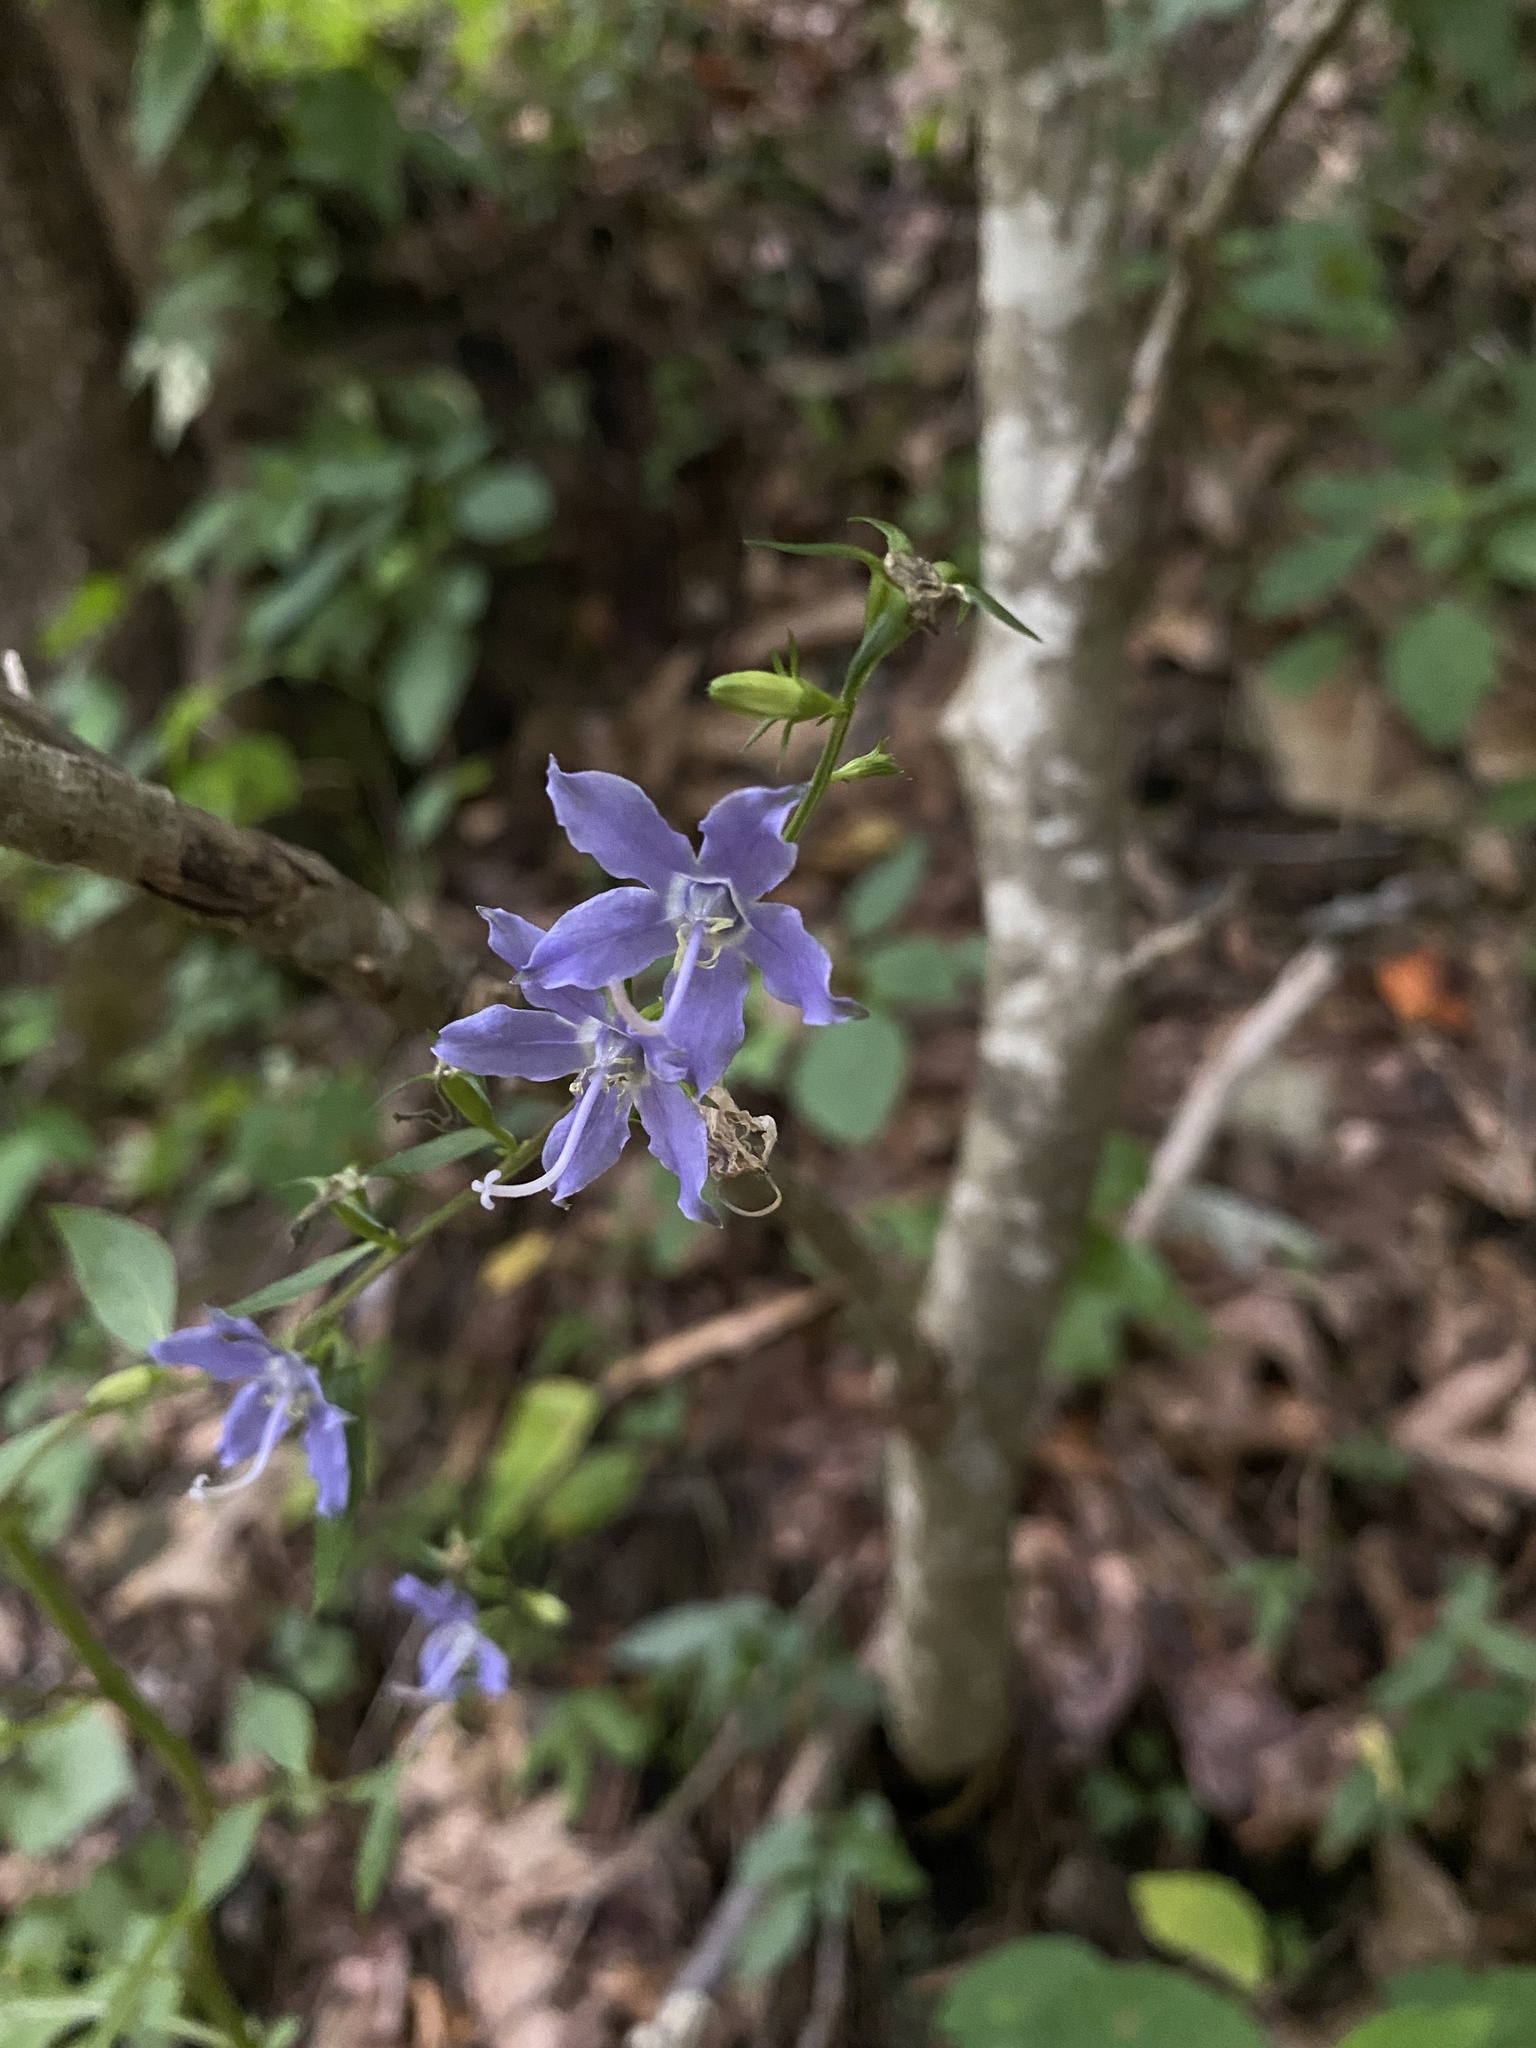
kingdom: Plantae
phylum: Tracheophyta
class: Magnoliopsida
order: Asterales
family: Campanulaceae
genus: Campanulastrum
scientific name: Campanulastrum americanum
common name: American bellflower
